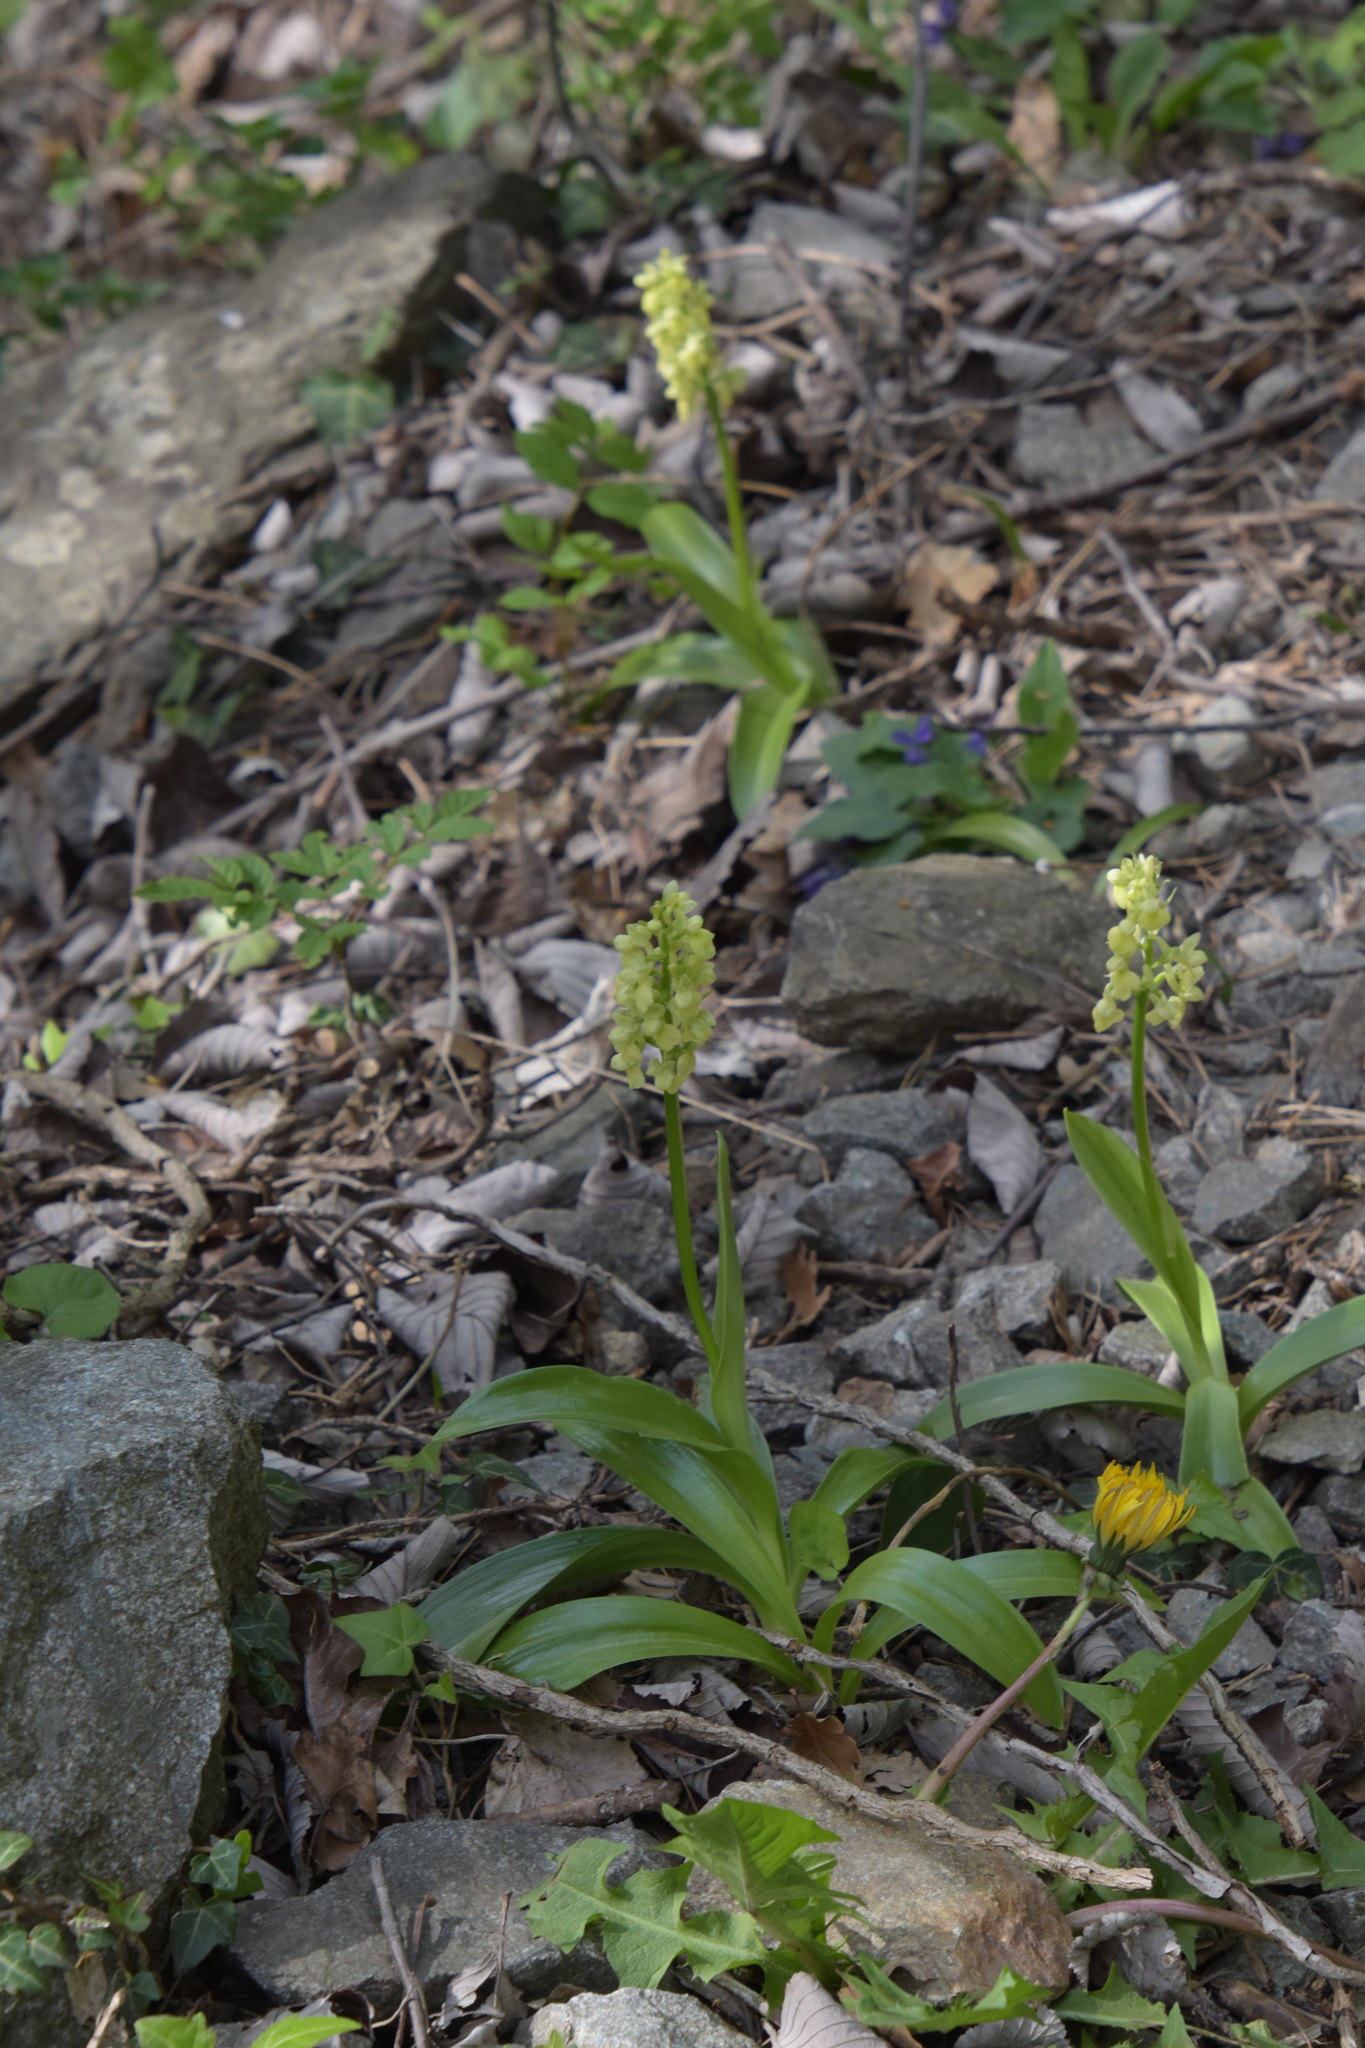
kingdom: Plantae
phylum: Tracheophyta
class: Liliopsida
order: Asparagales
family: Orchidaceae
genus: Orchis
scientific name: Orchis pallens
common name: Pale-flowered orchid
